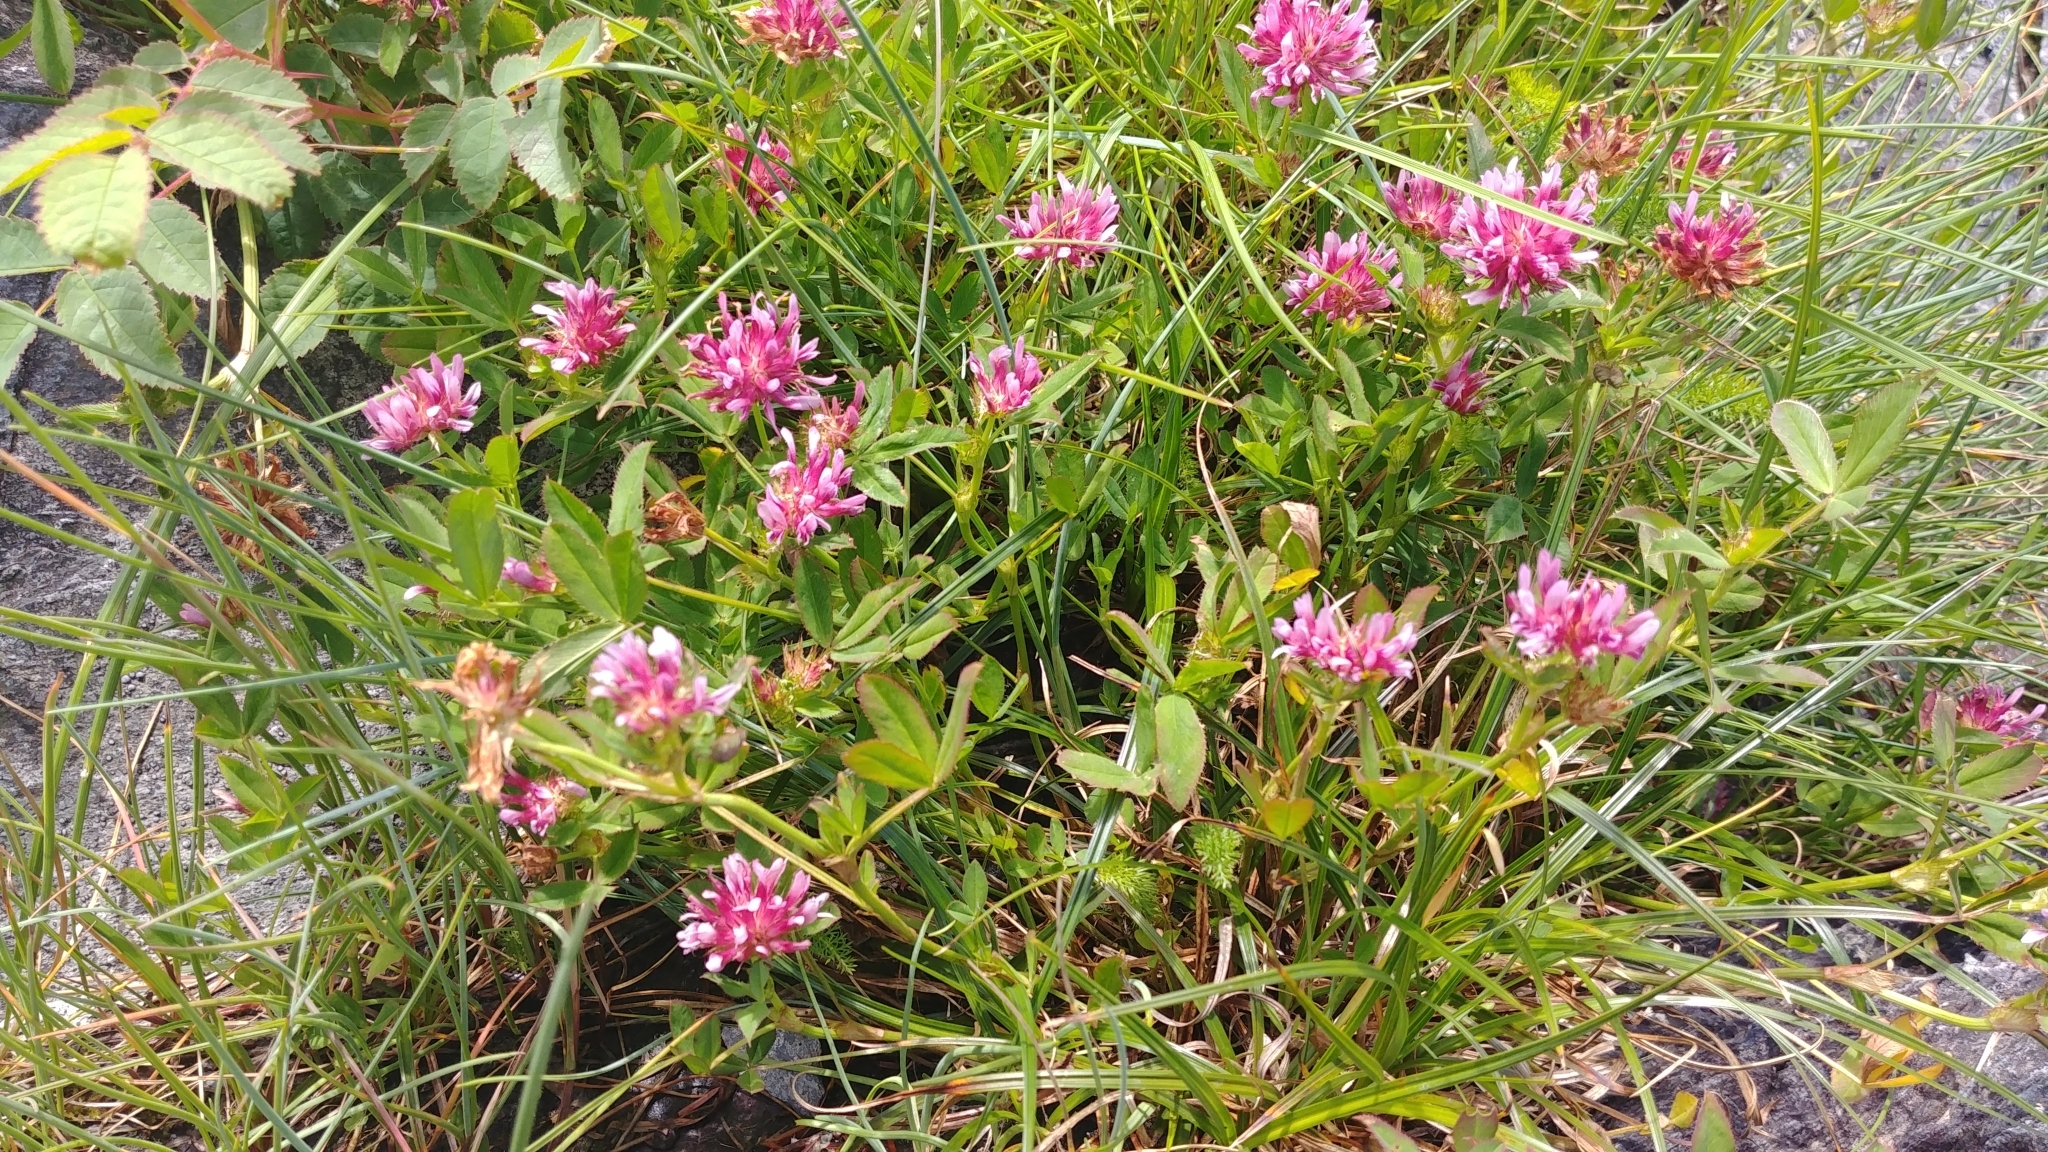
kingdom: Plantae
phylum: Tracheophyta
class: Magnoliopsida
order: Fabales
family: Fabaceae
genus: Trifolium
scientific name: Trifolium wormskioldii
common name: Springbank clover
